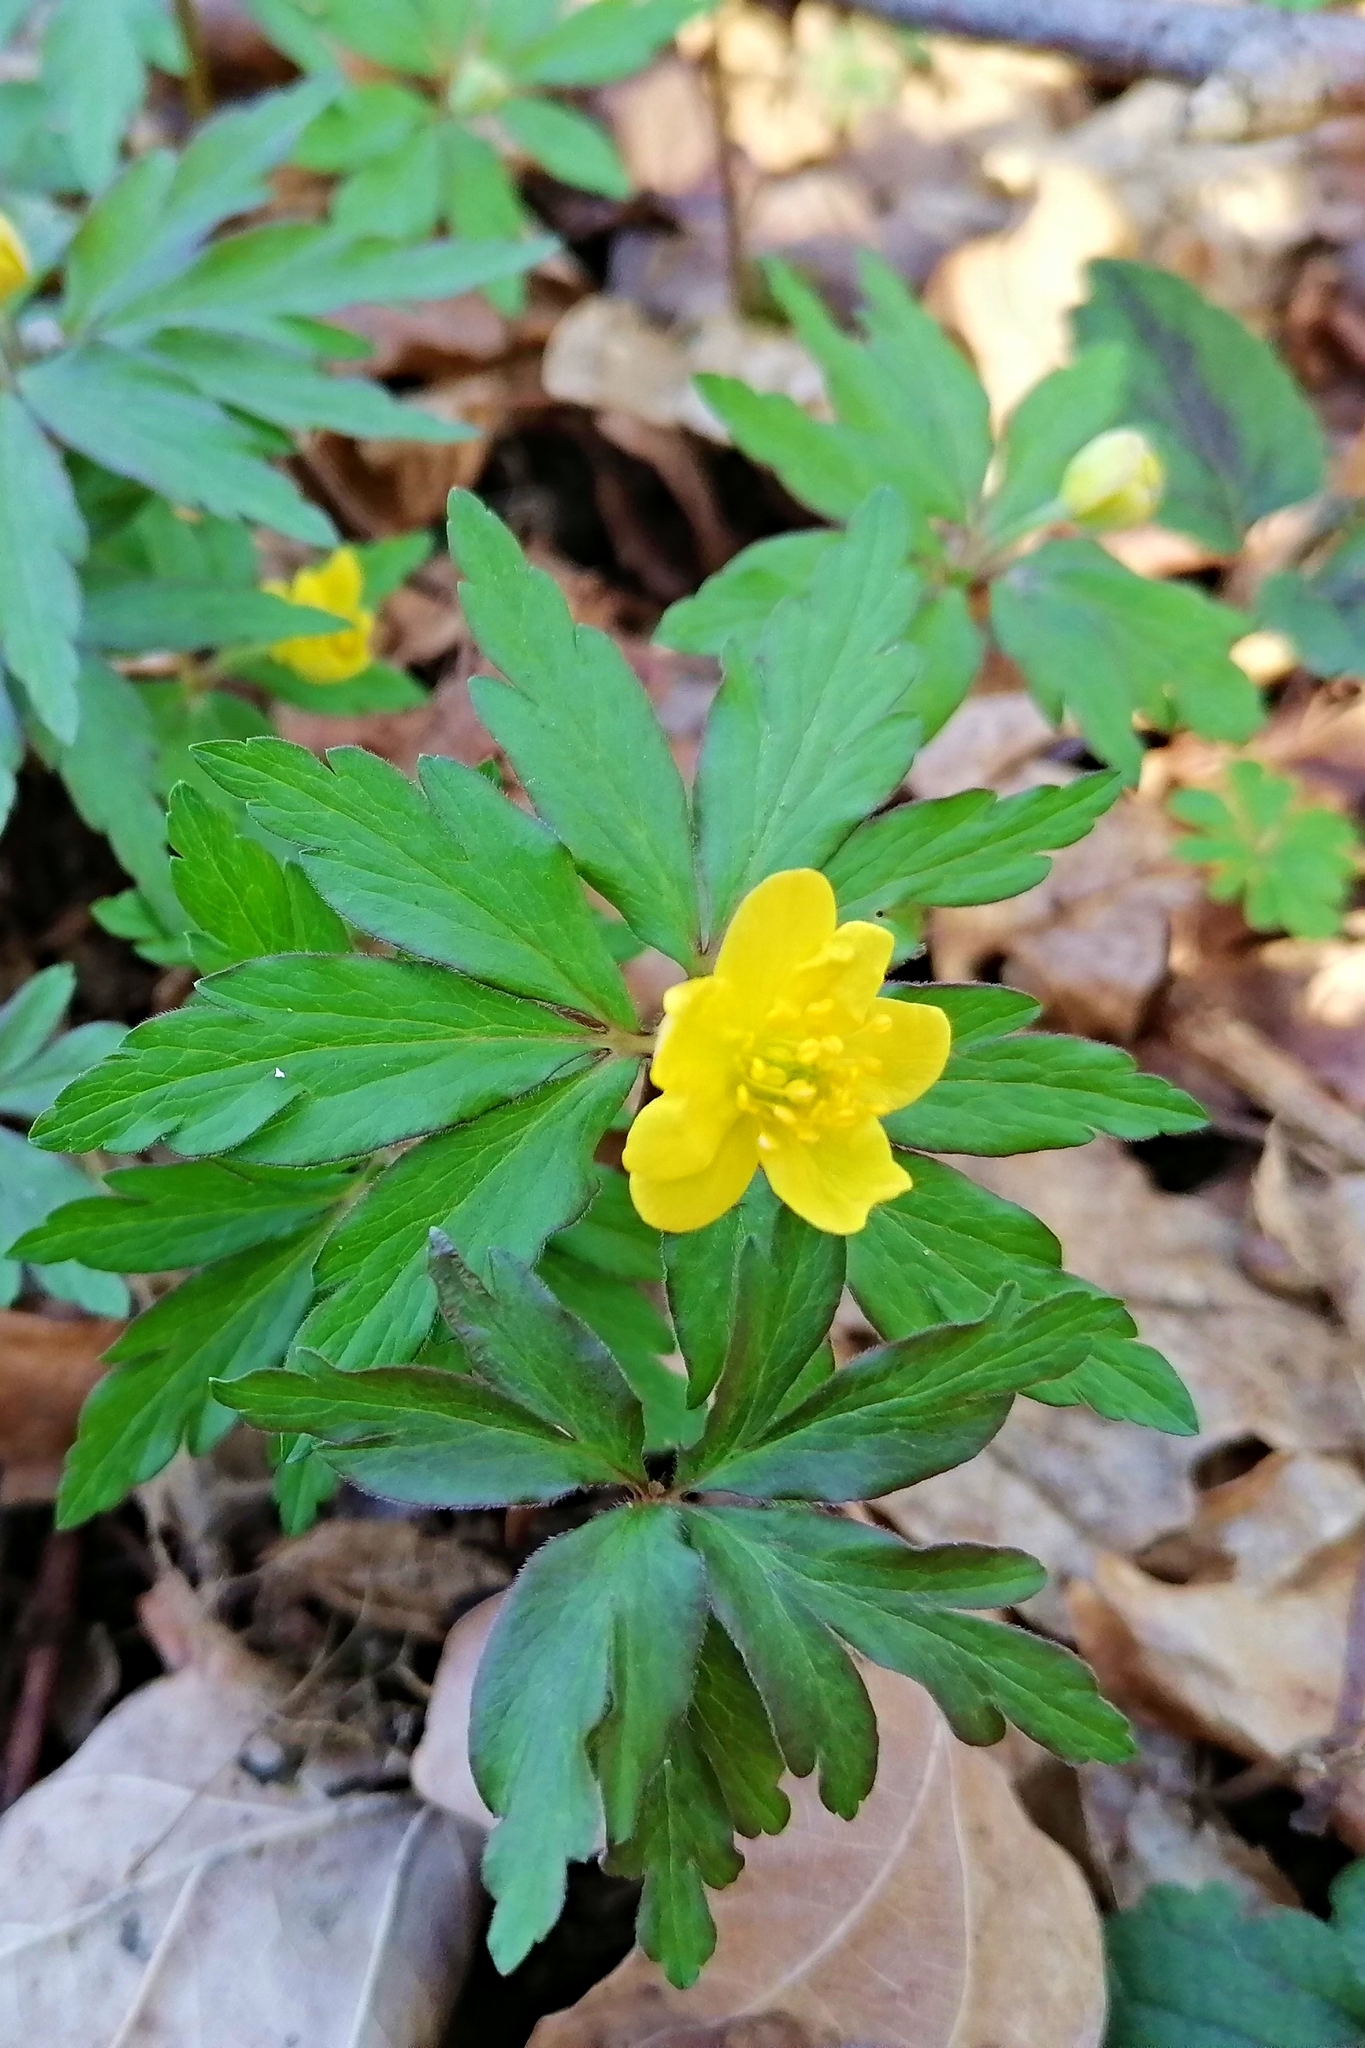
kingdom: Plantae
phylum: Tracheophyta
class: Magnoliopsida
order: Ranunculales
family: Ranunculaceae
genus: Anemone
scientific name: Anemone ranunculoides
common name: Yellow anemone
